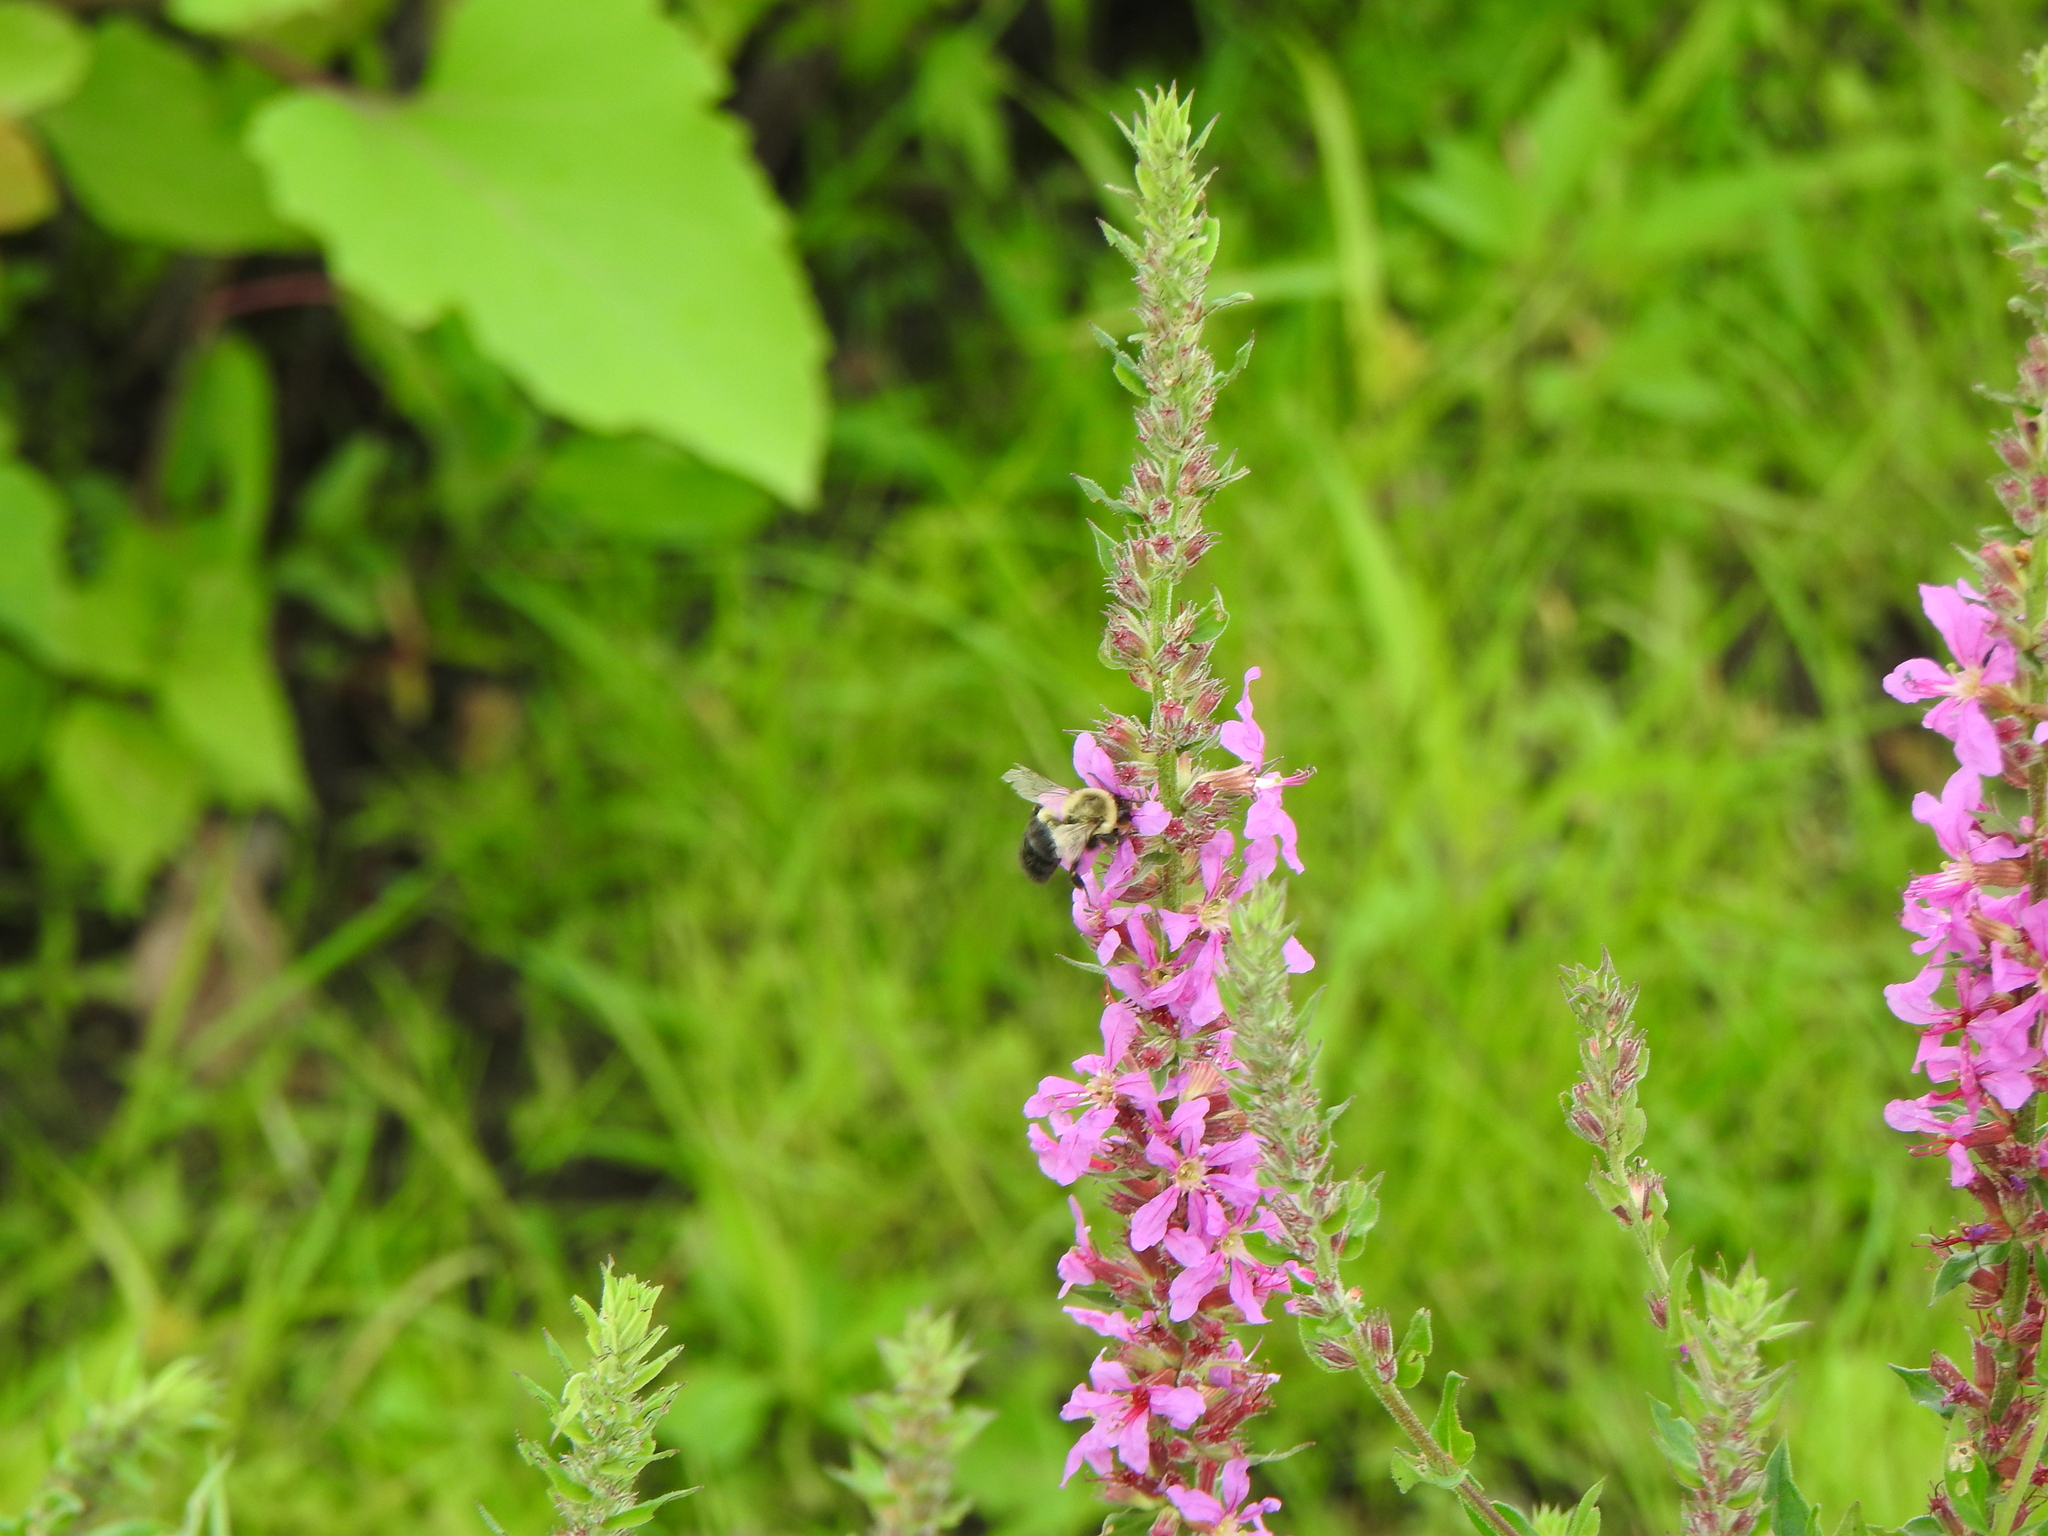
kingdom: Animalia
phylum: Arthropoda
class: Insecta
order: Hymenoptera
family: Apidae
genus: Bombus
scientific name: Bombus impatiens
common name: Common eastern bumble bee
